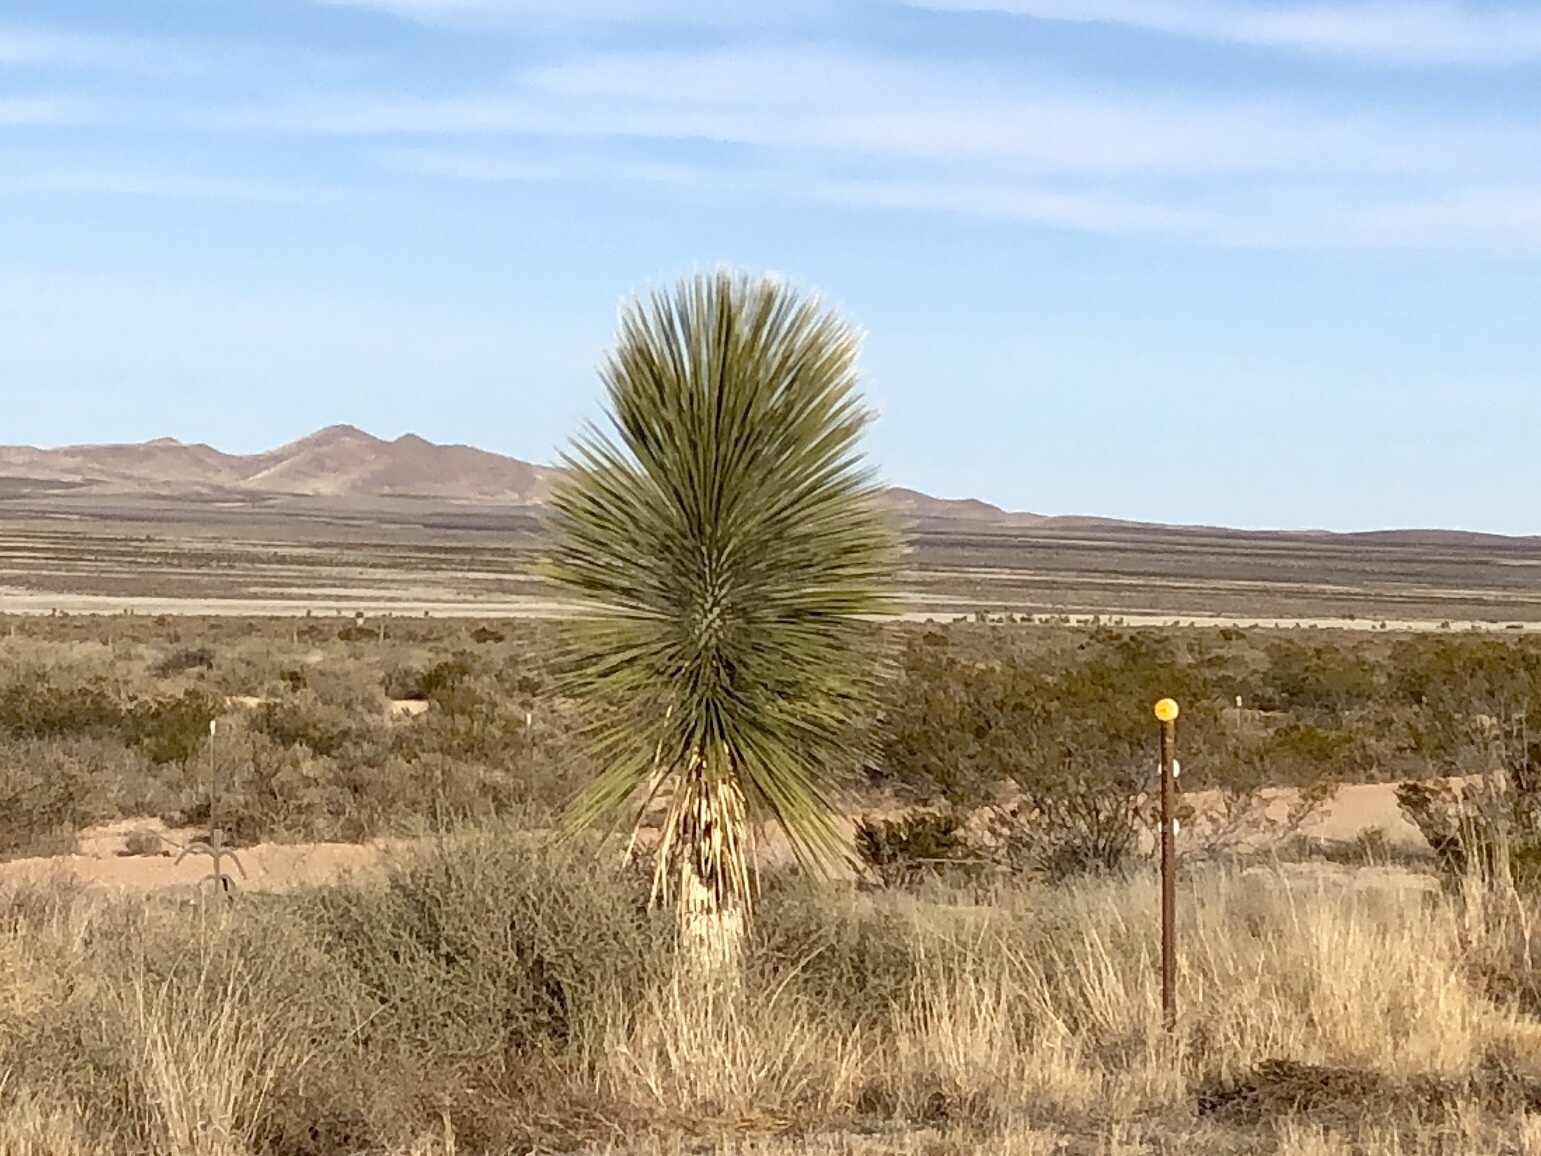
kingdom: Plantae
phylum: Tracheophyta
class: Liliopsida
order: Asparagales
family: Asparagaceae
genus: Yucca
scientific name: Yucca elata
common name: Palmella
